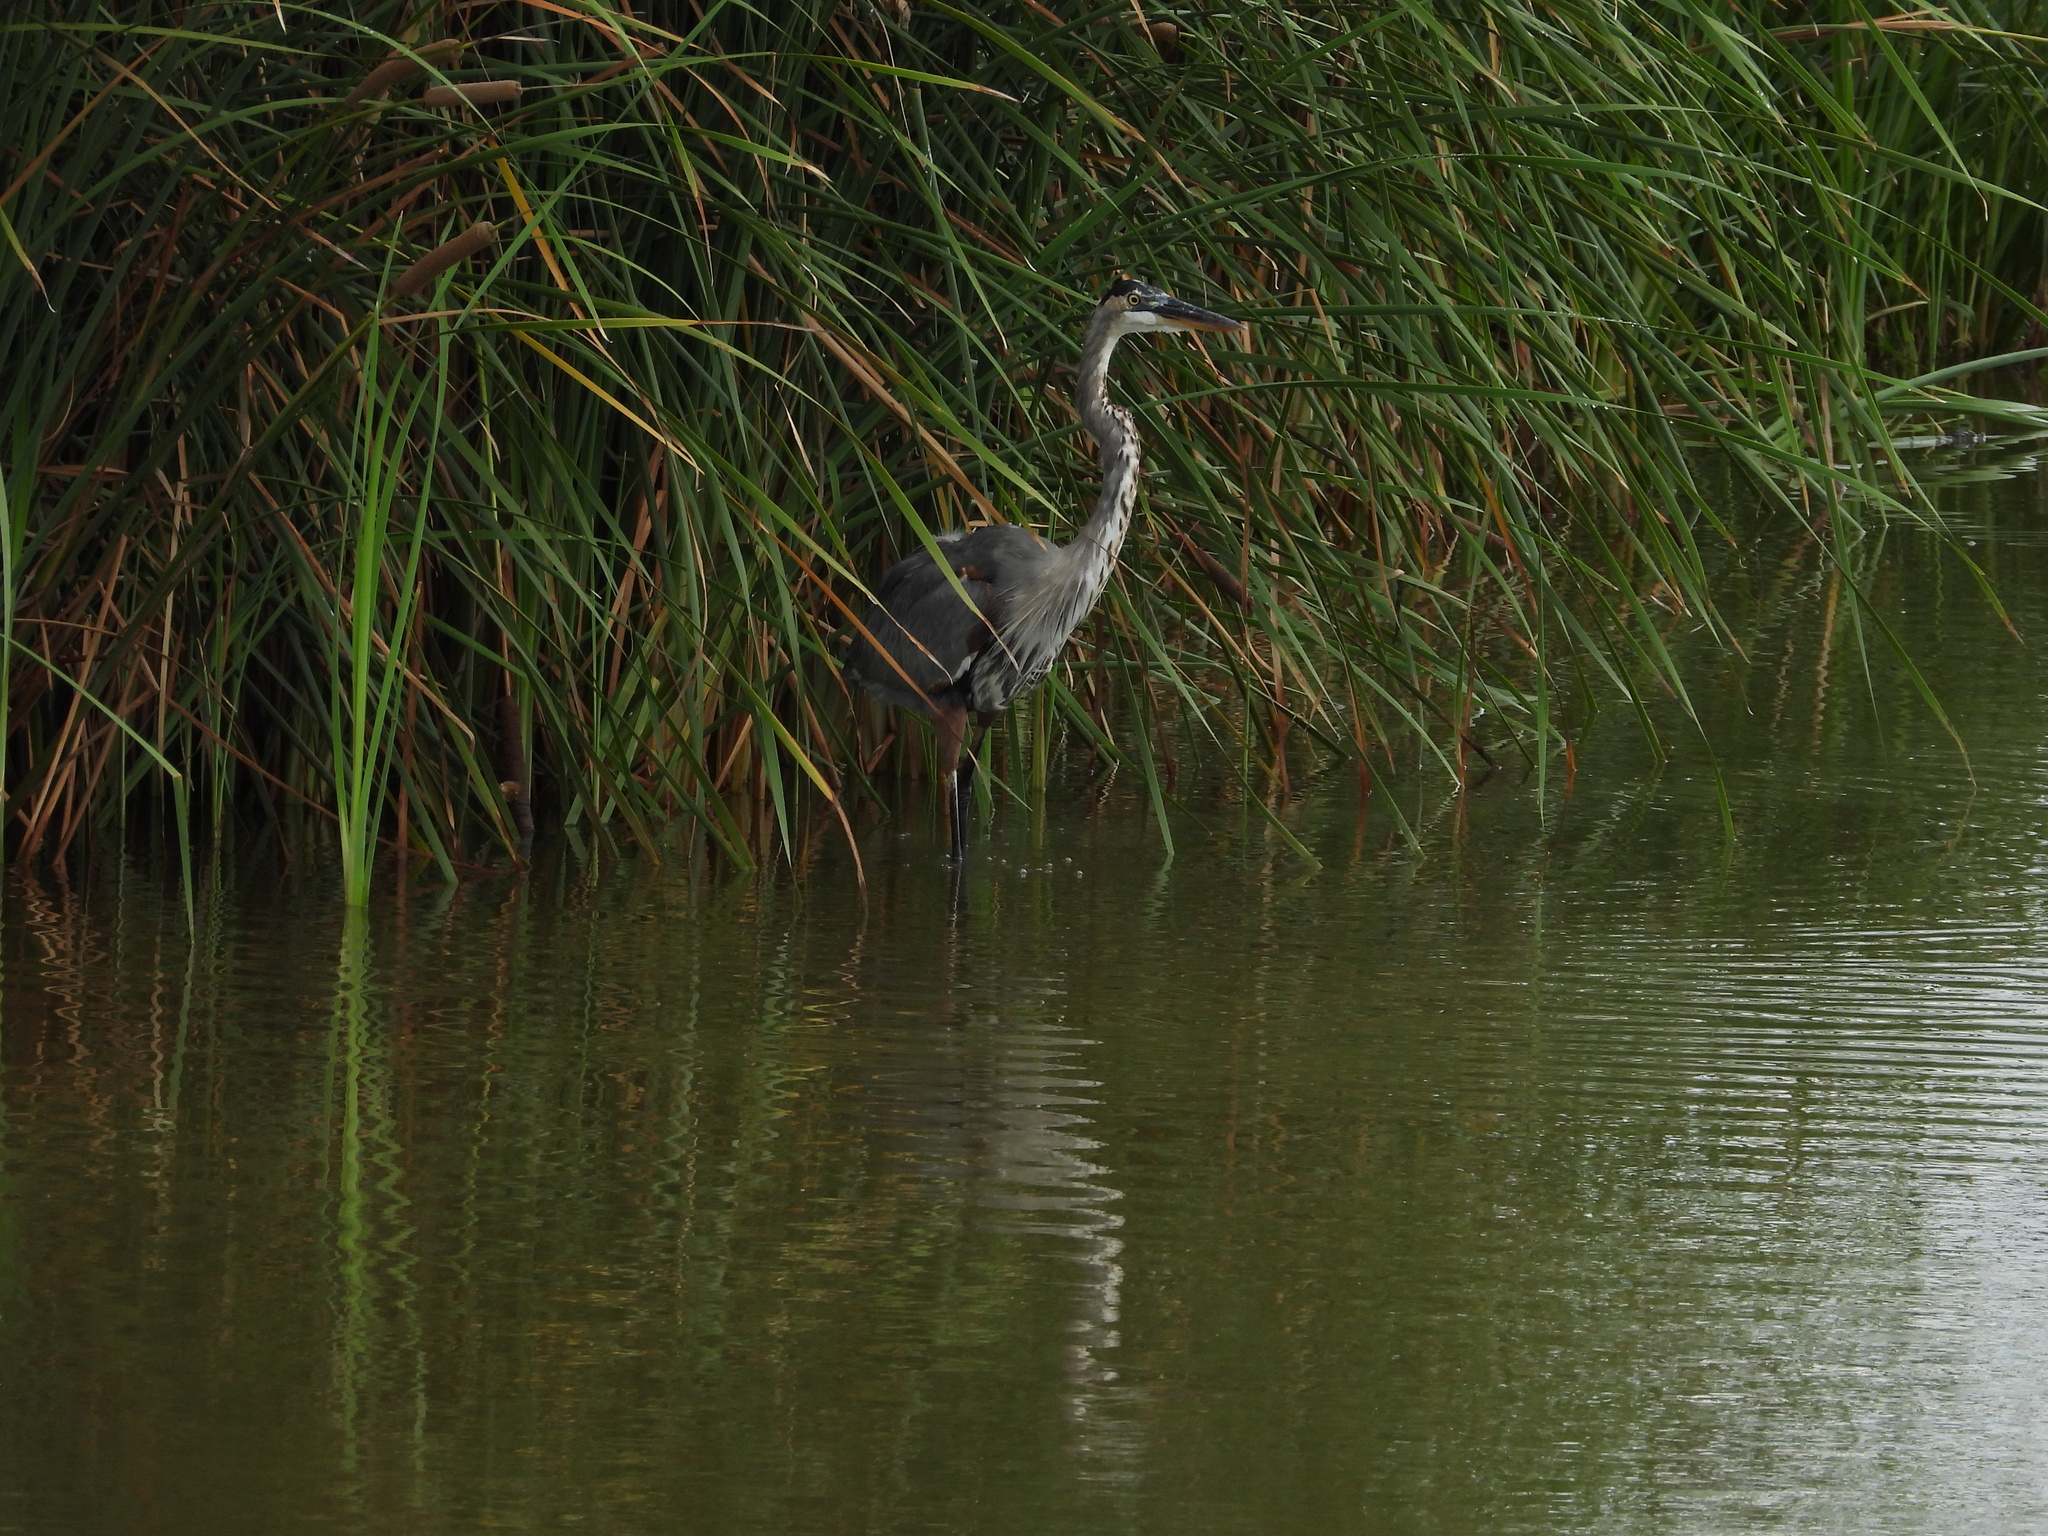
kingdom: Animalia
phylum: Chordata
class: Aves
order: Pelecaniformes
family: Ardeidae
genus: Ardea
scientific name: Ardea herodias
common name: Great blue heron
